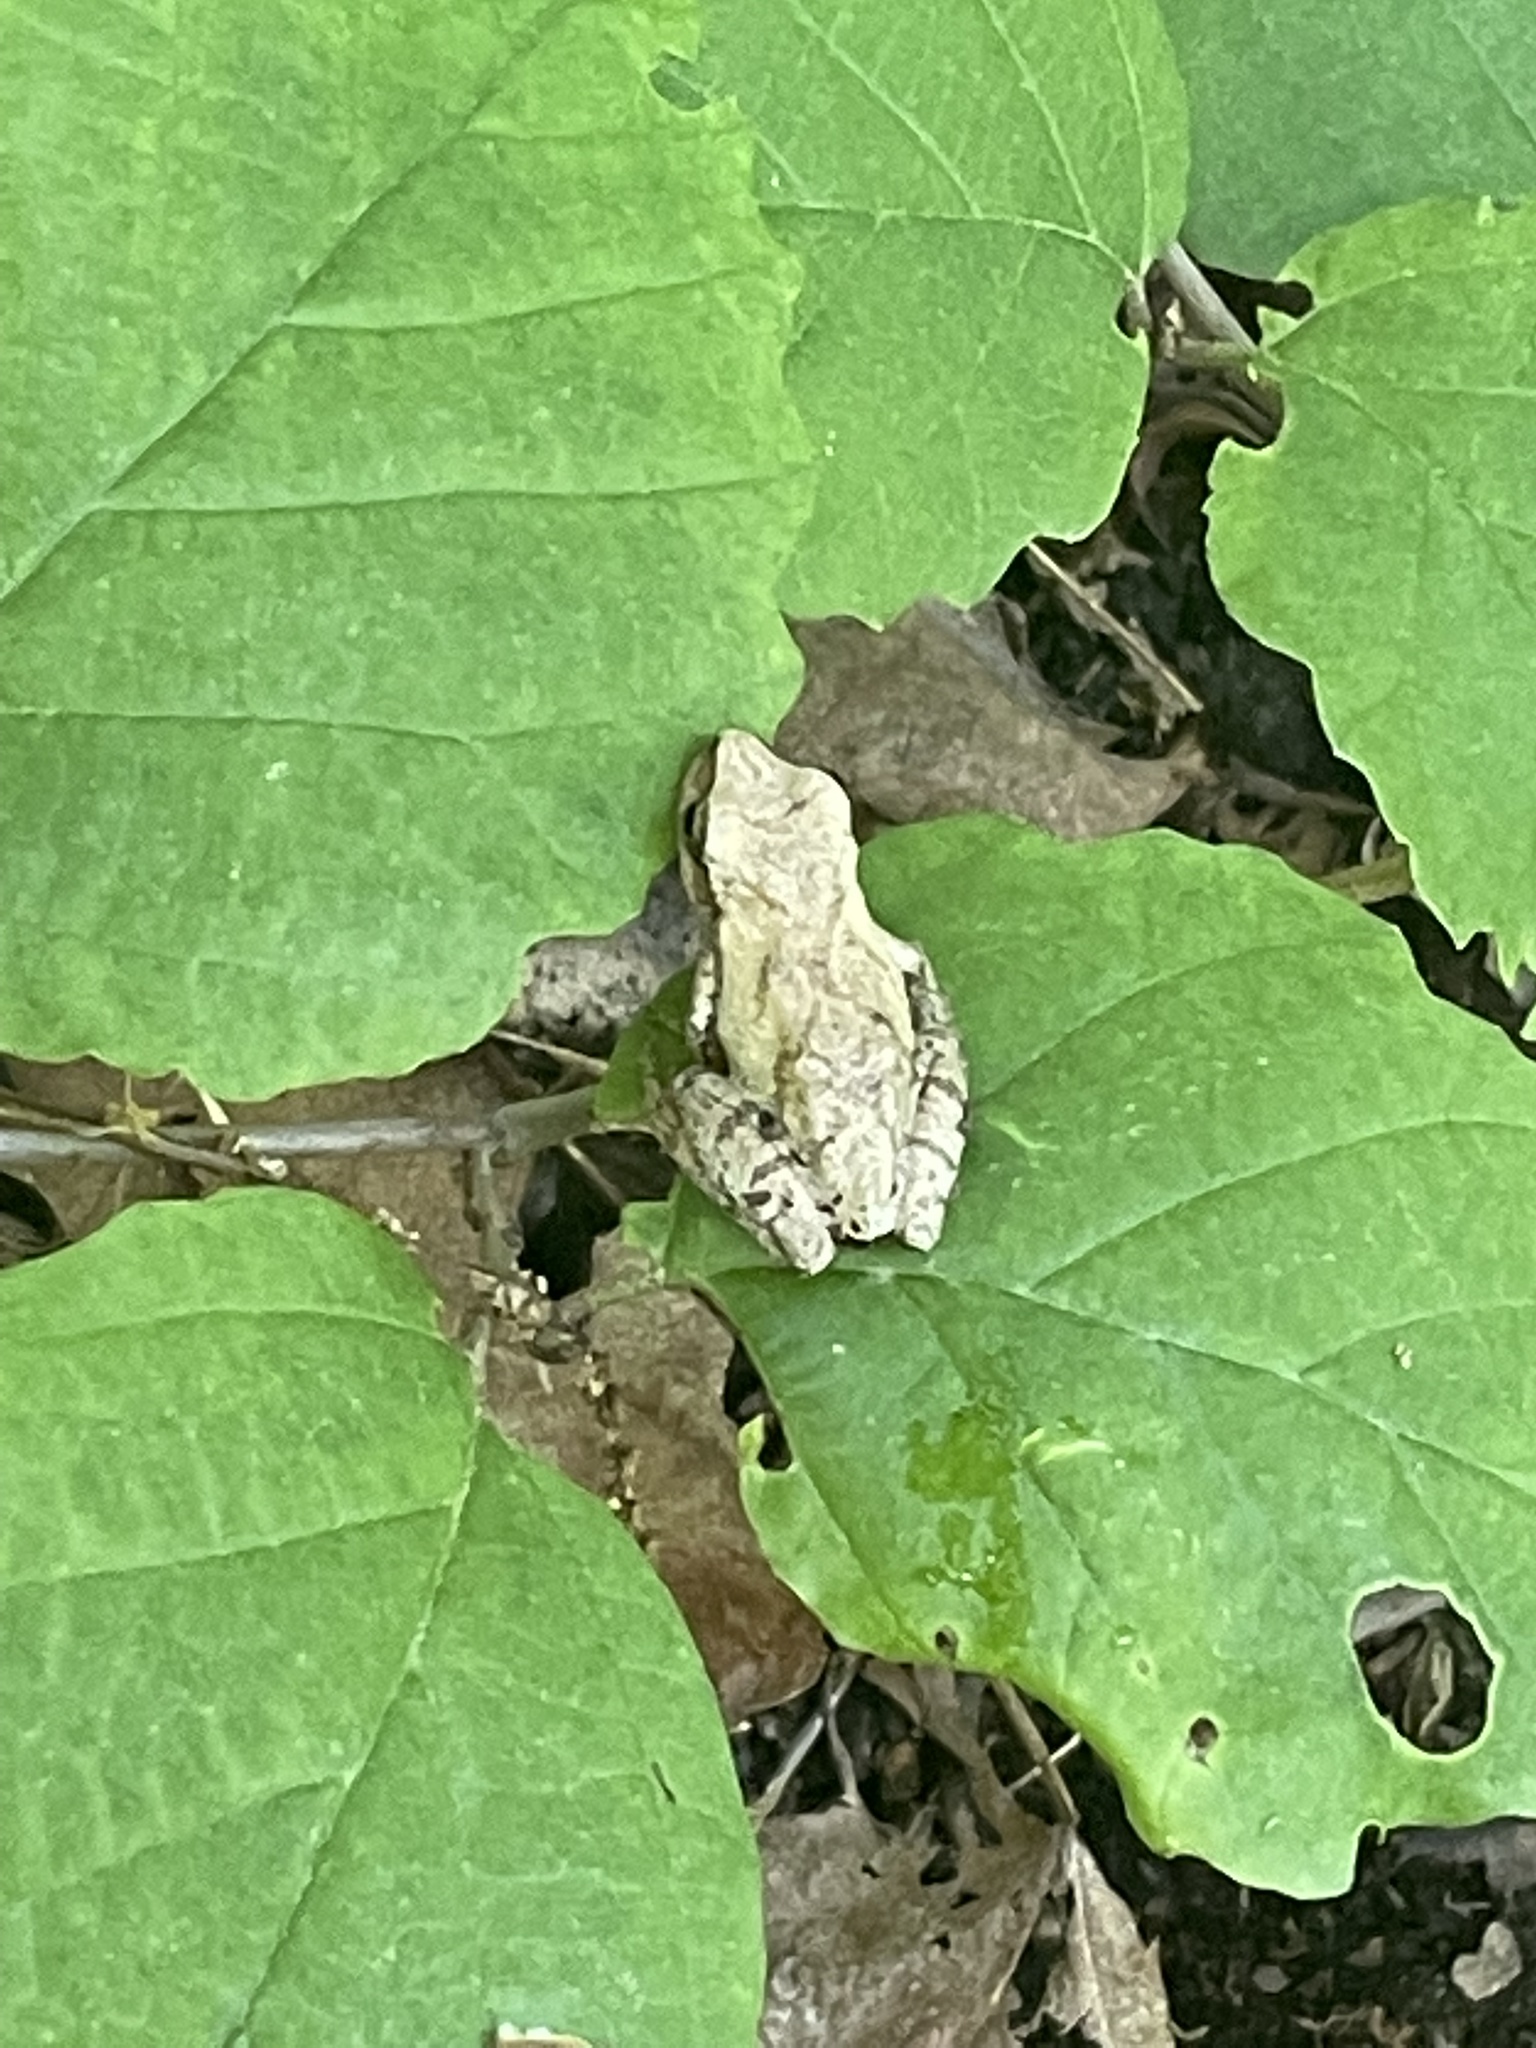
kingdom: Animalia
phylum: Chordata
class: Amphibia
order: Anura
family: Hylidae
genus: Pseudacris
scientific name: Pseudacris crucifer
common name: Spring peeper
